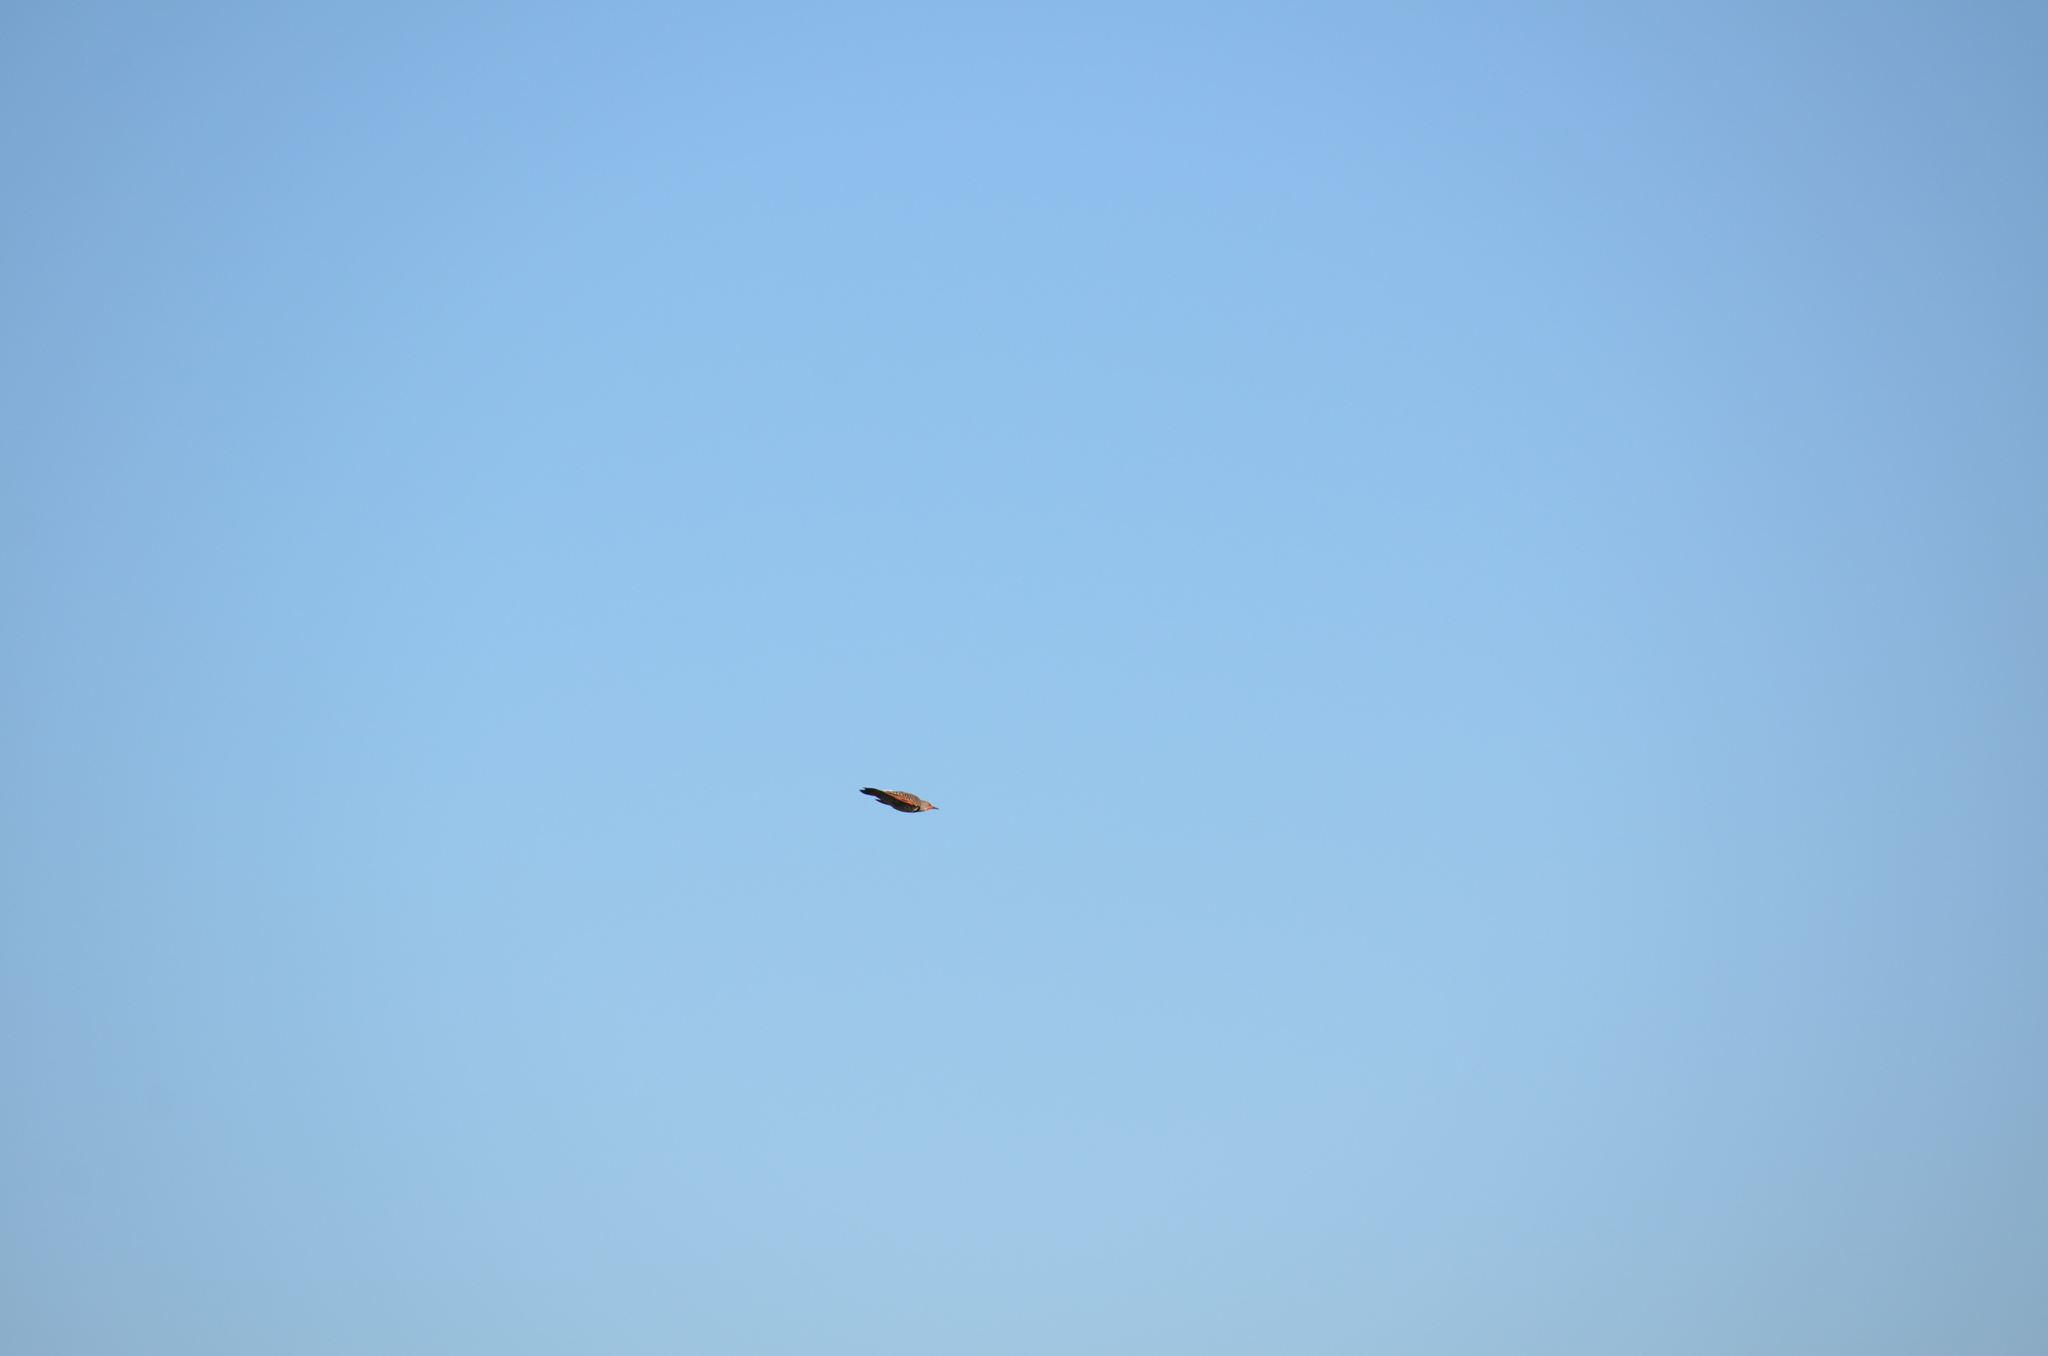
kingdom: Animalia
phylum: Chordata
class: Aves
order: Piciformes
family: Picidae
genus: Colaptes
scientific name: Colaptes auratus
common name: Northern flicker
